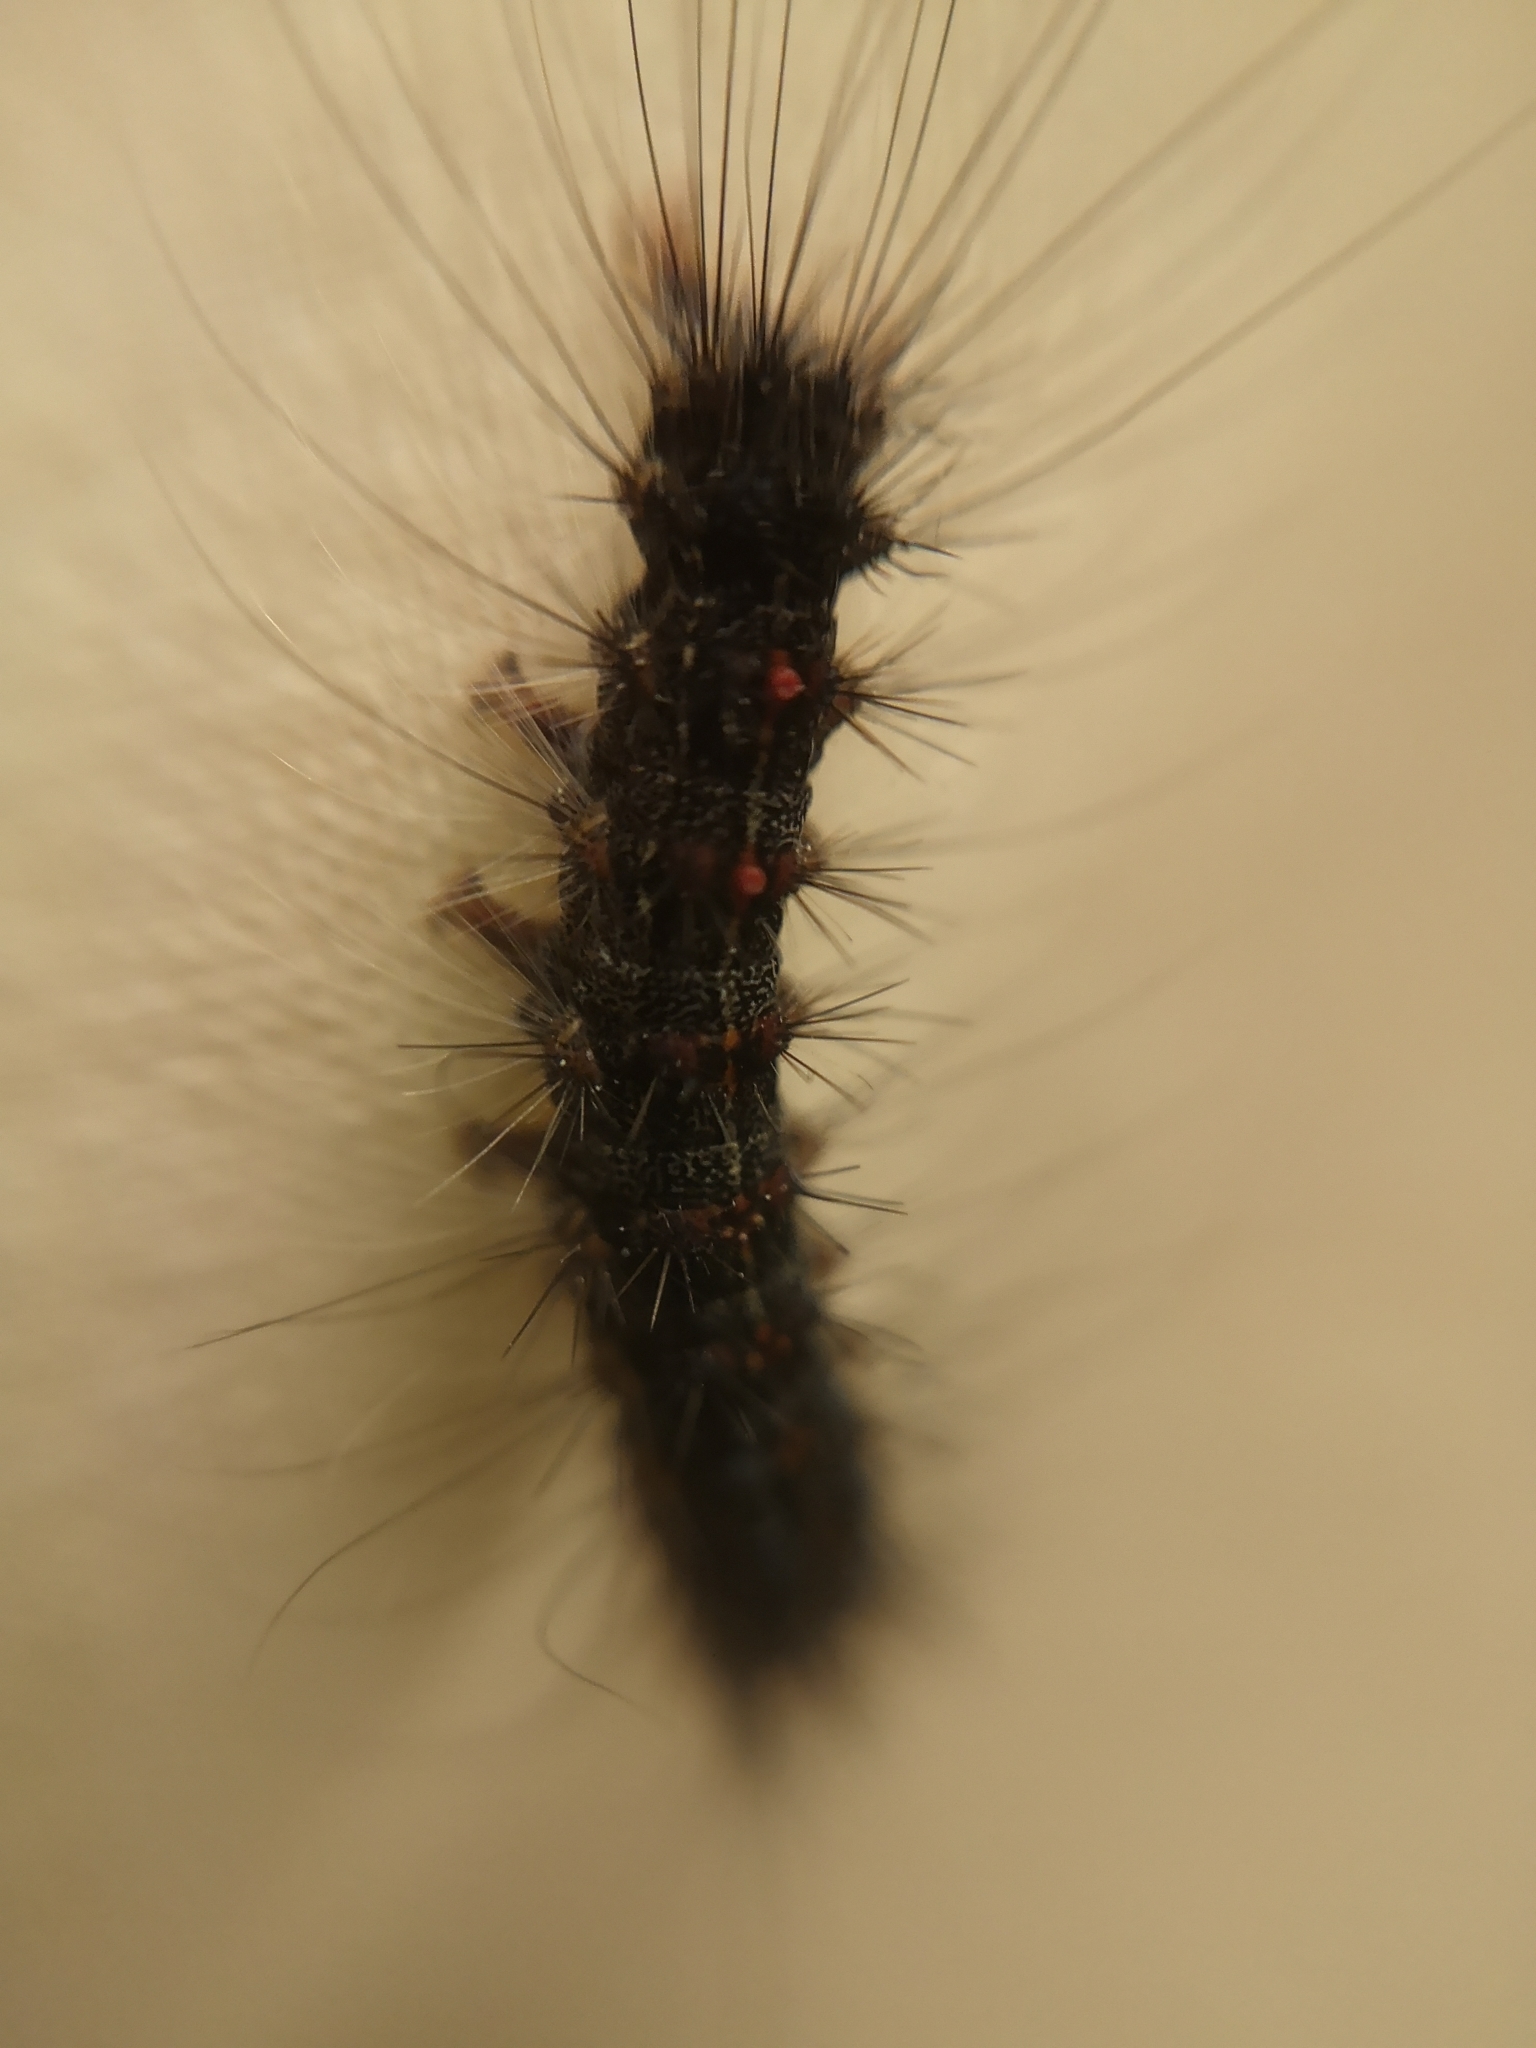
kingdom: Animalia
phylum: Arthropoda
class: Insecta
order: Lepidoptera
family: Erebidae
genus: Lymantria
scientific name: Lymantria dispar
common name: Gypsy moth
